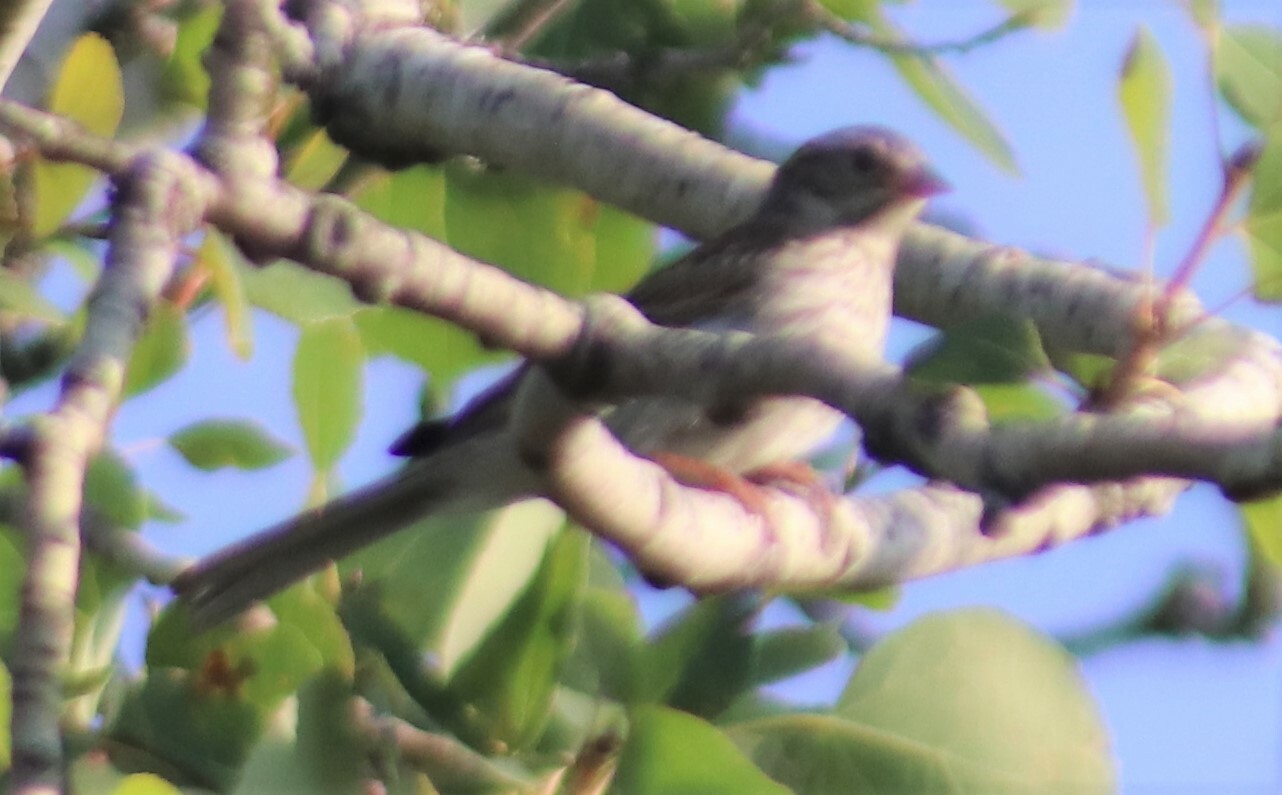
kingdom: Animalia
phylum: Chordata
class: Aves
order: Passeriformes
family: Passerellidae
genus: Pooecetes
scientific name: Pooecetes gramineus
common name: Vesper sparrow
